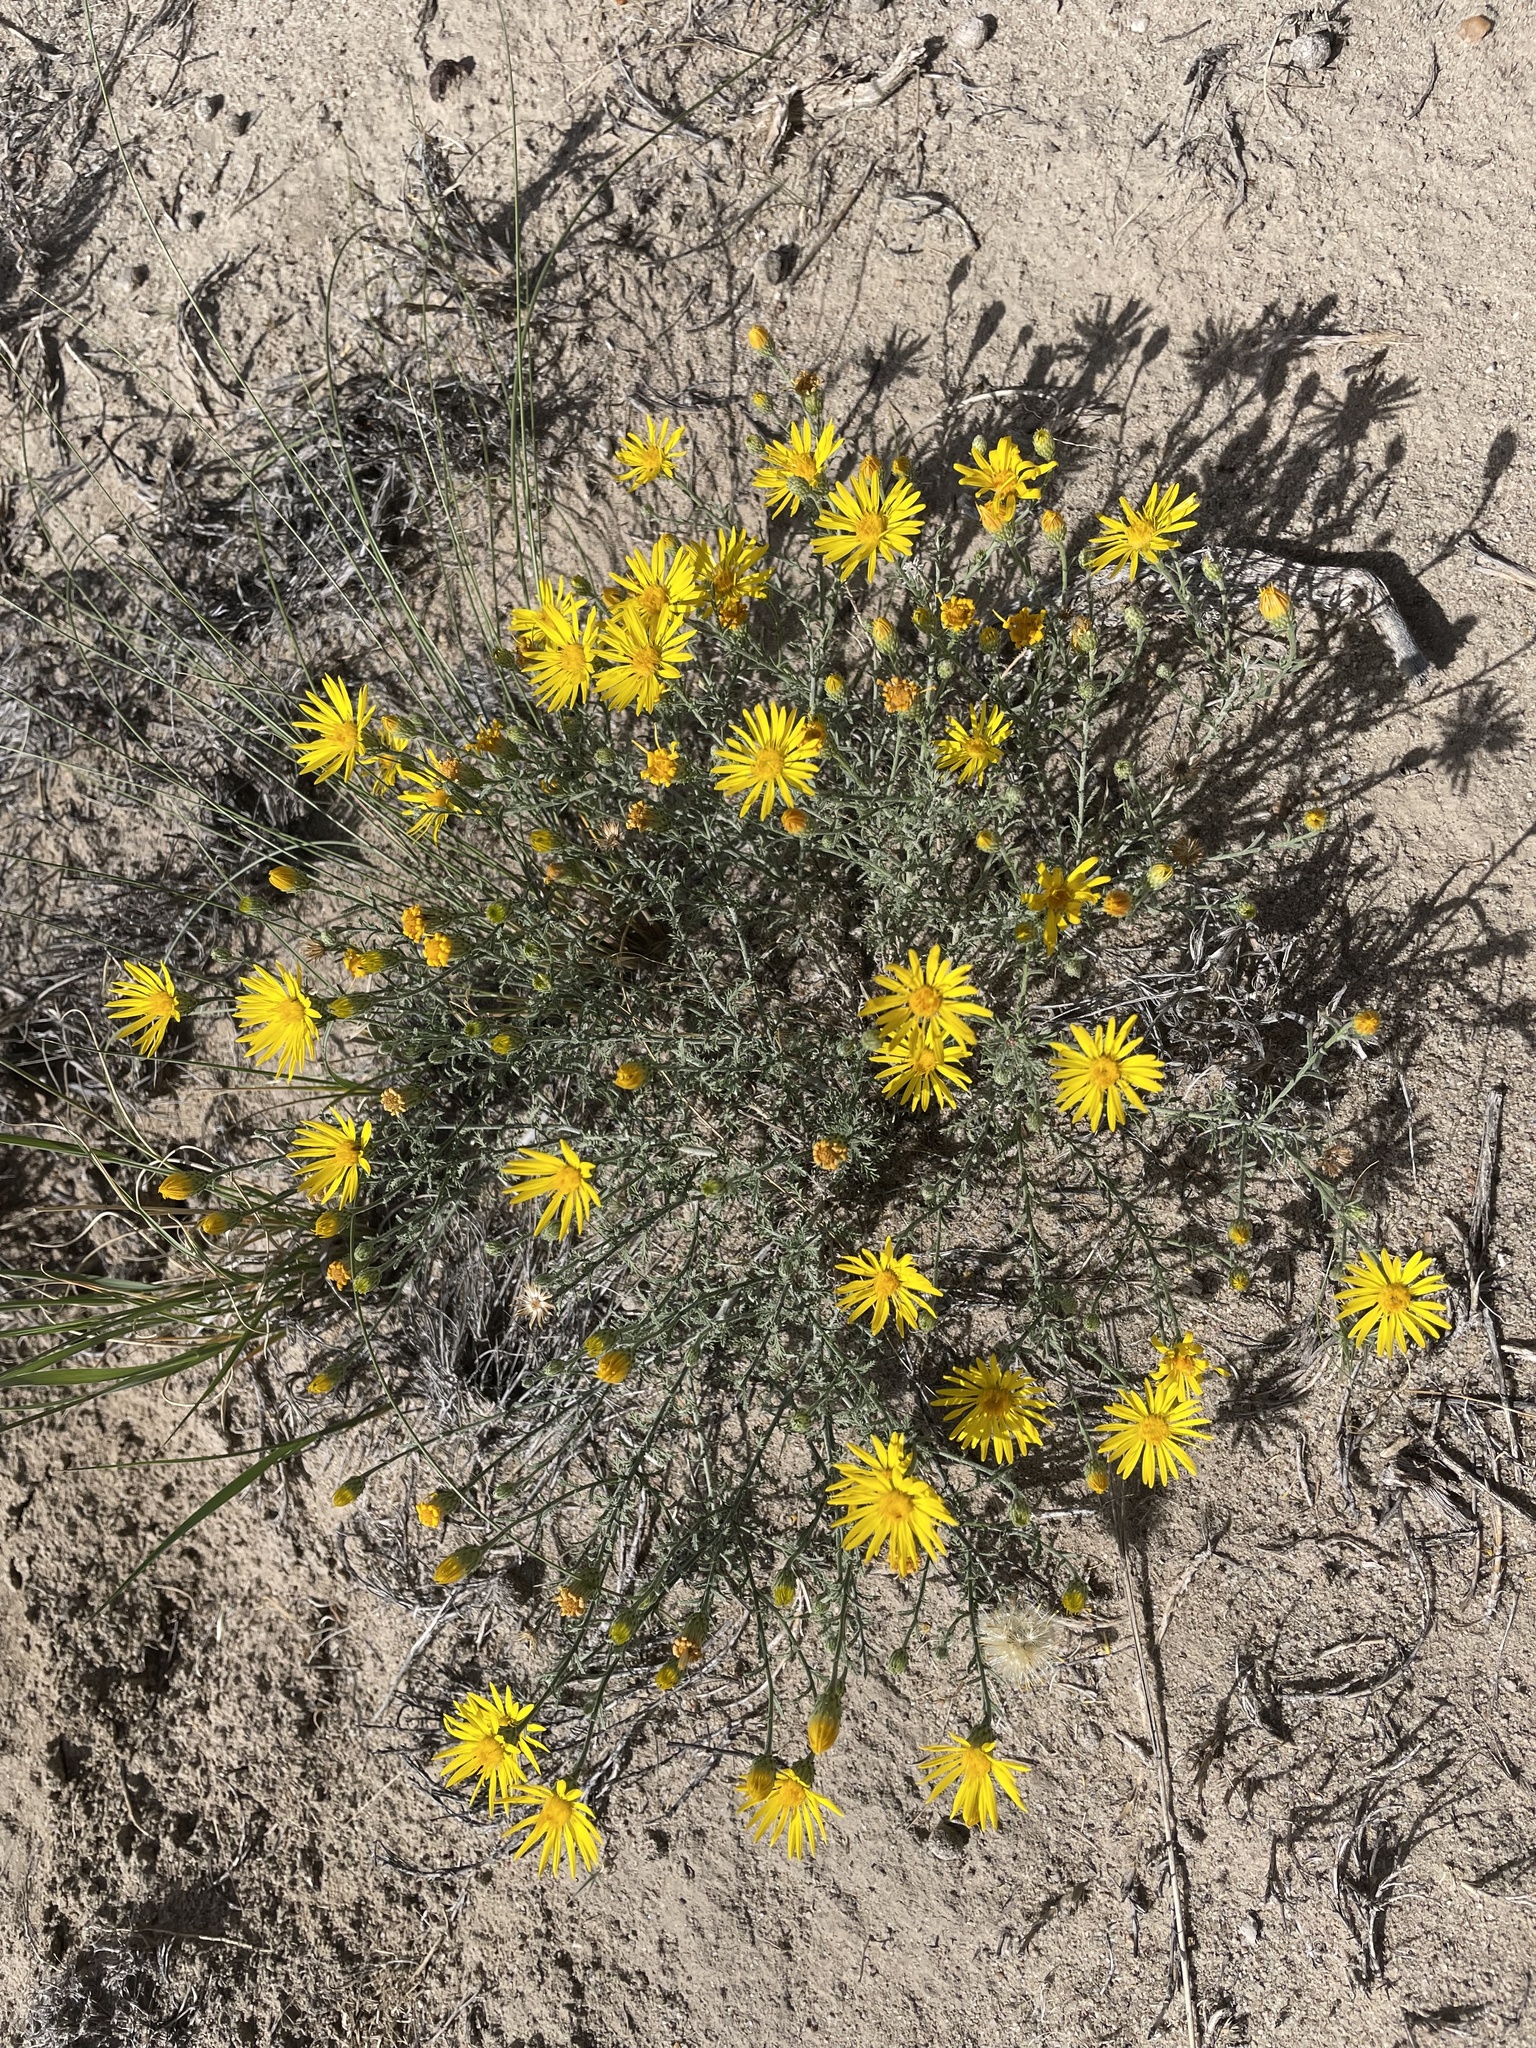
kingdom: Plantae
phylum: Tracheophyta
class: Magnoliopsida
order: Asterales
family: Asteraceae
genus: Xanthisma
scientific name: Xanthisma spinulosum
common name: Spiny goldenweed
